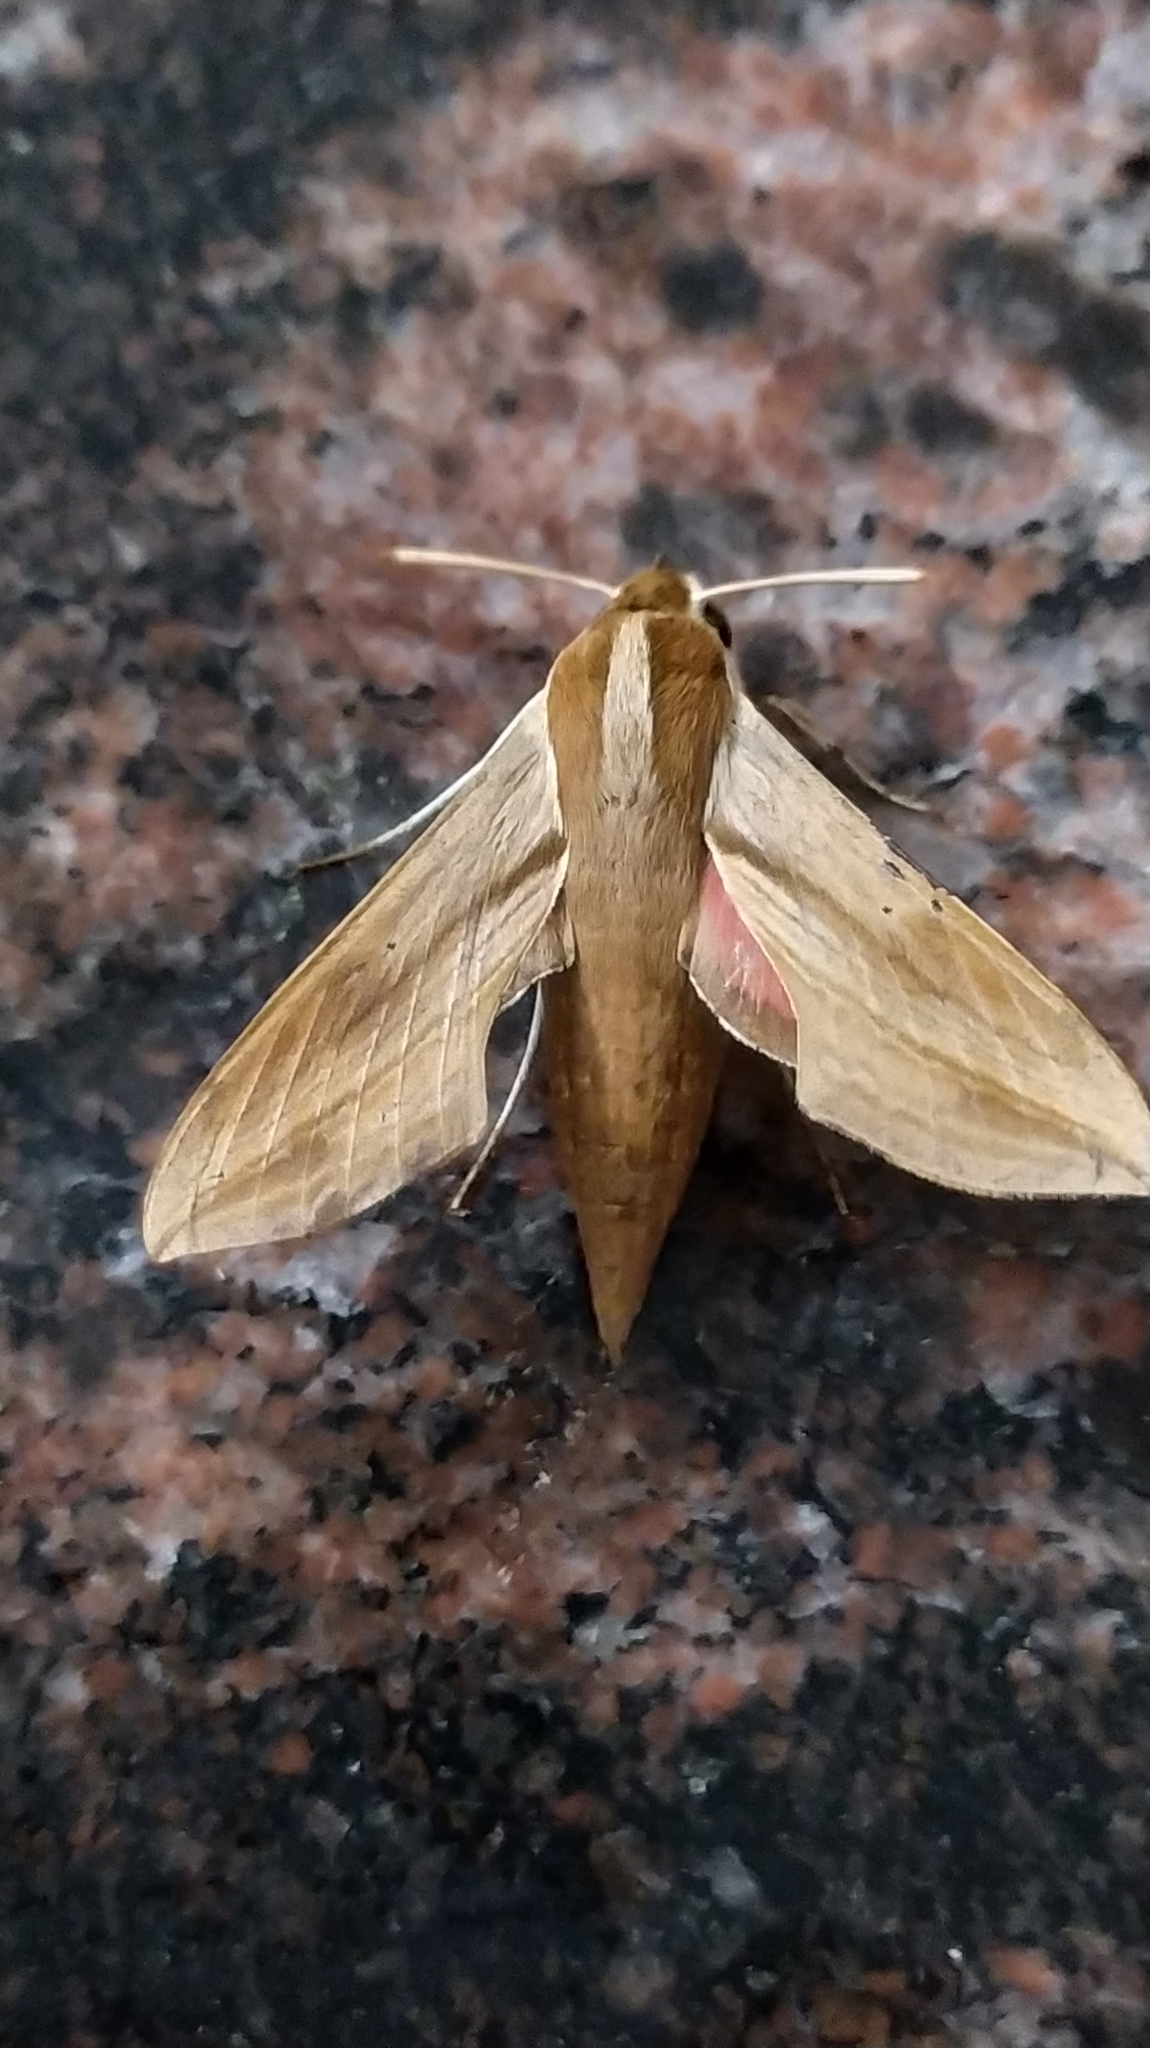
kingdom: Animalia
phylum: Arthropoda
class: Insecta
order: Lepidoptera
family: Sphingidae
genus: Hippotion
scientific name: Hippotion rosetta
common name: Vine hawk moth
